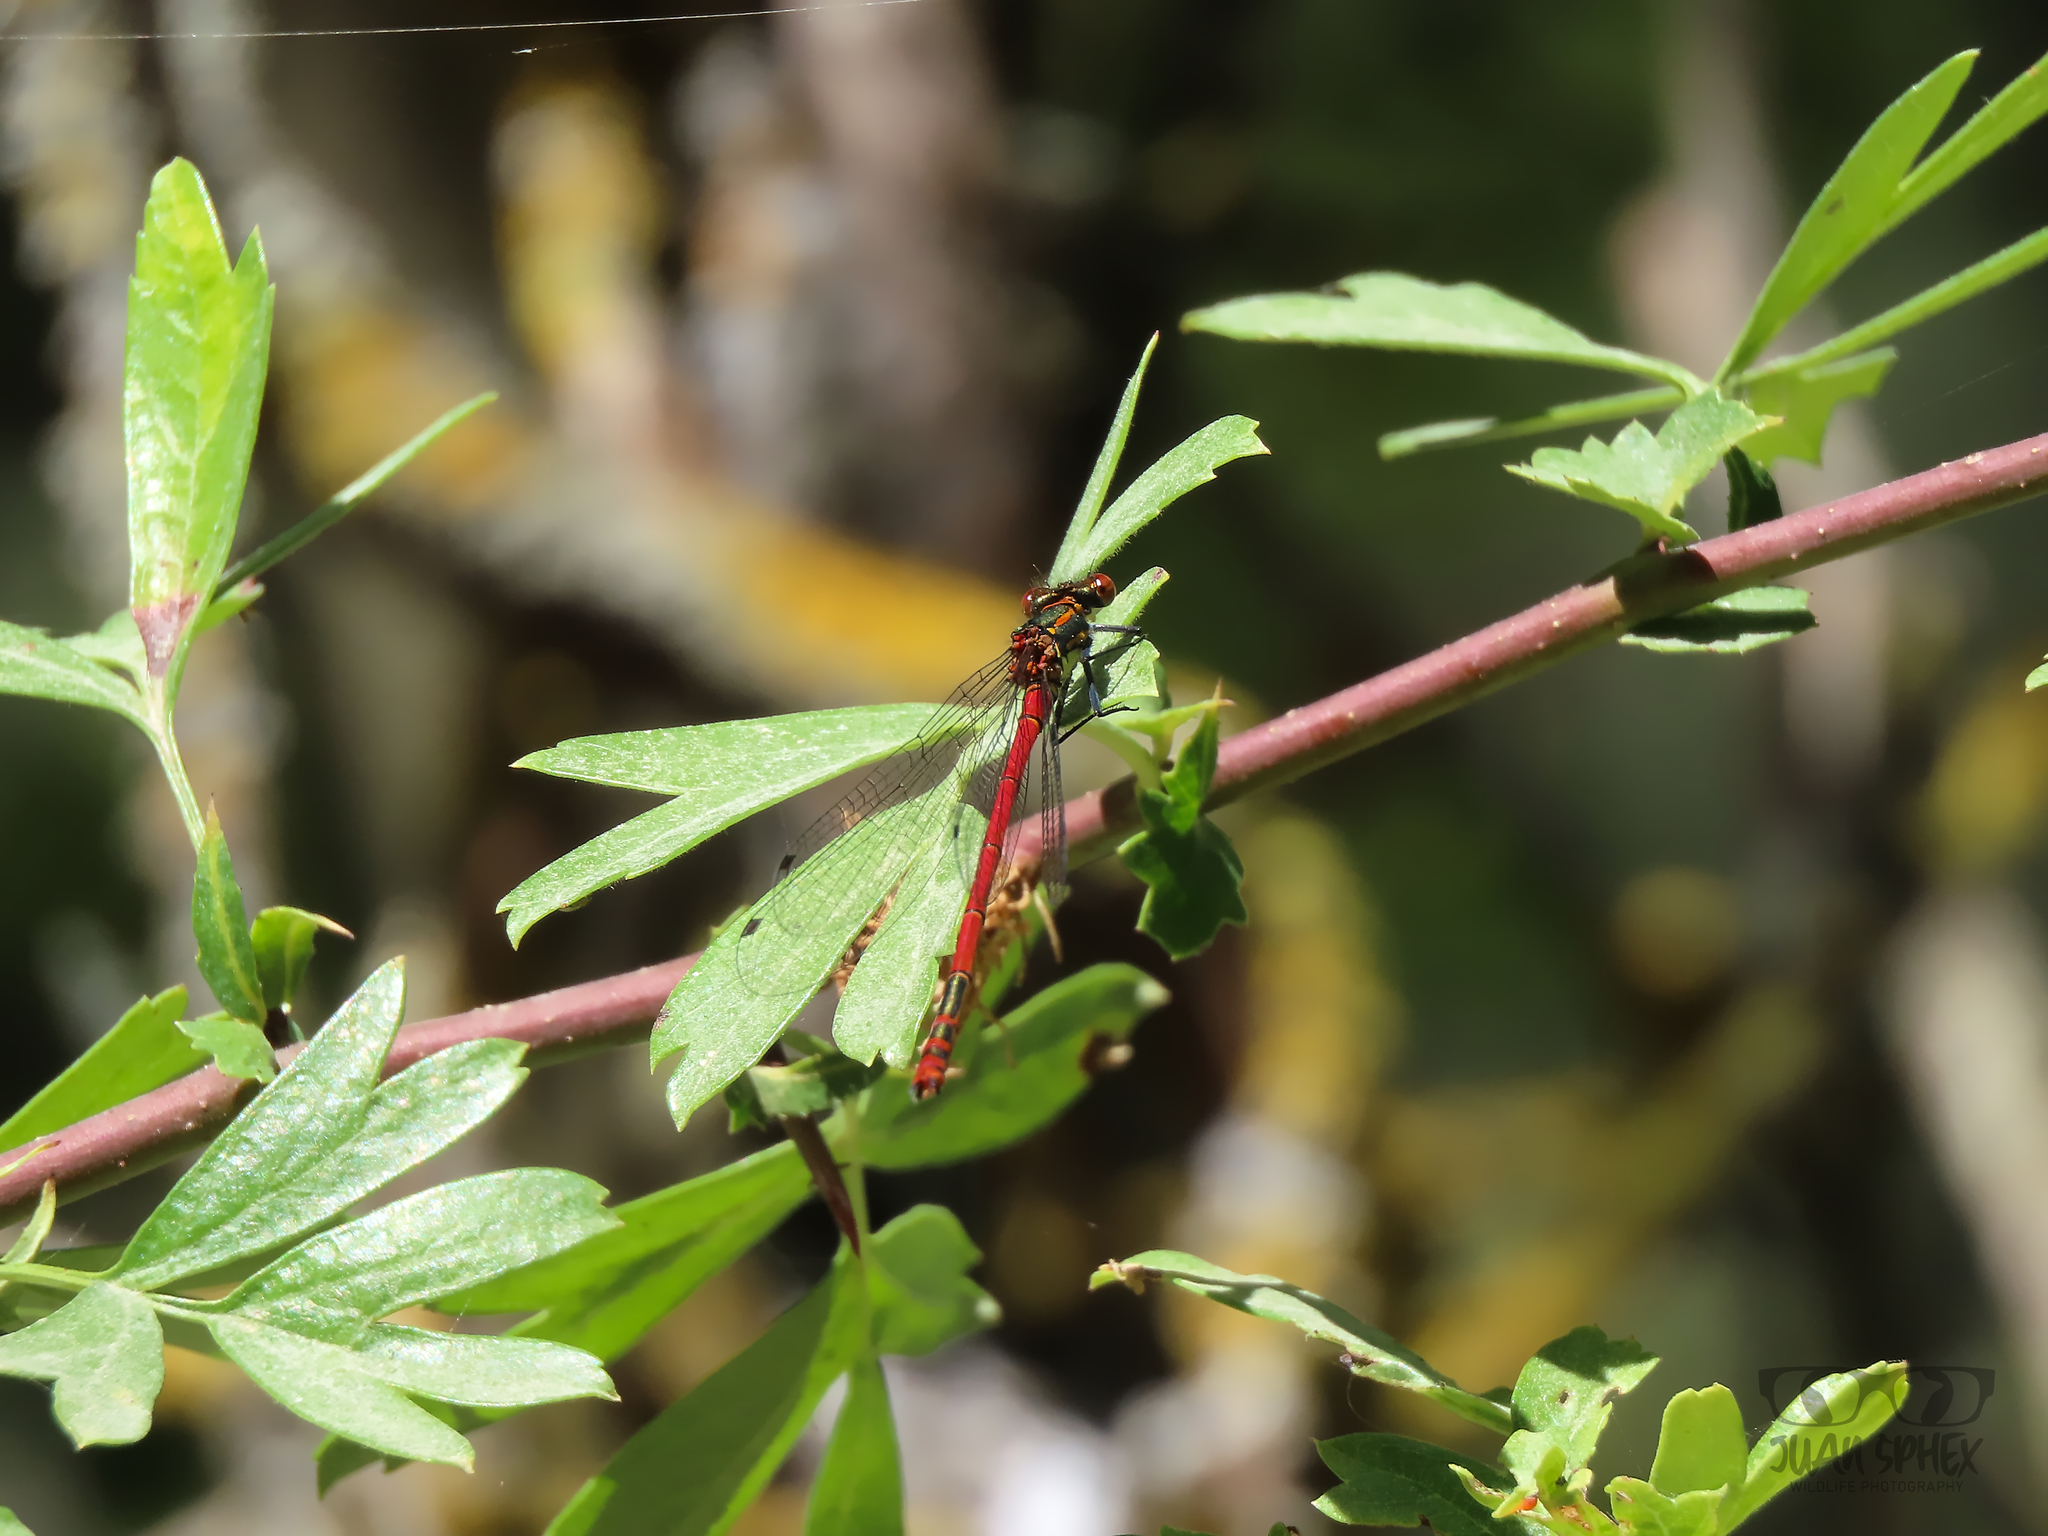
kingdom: Animalia
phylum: Arthropoda
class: Insecta
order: Odonata
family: Coenagrionidae
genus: Pyrrhosoma
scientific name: Pyrrhosoma nymphula
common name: Large red damsel
